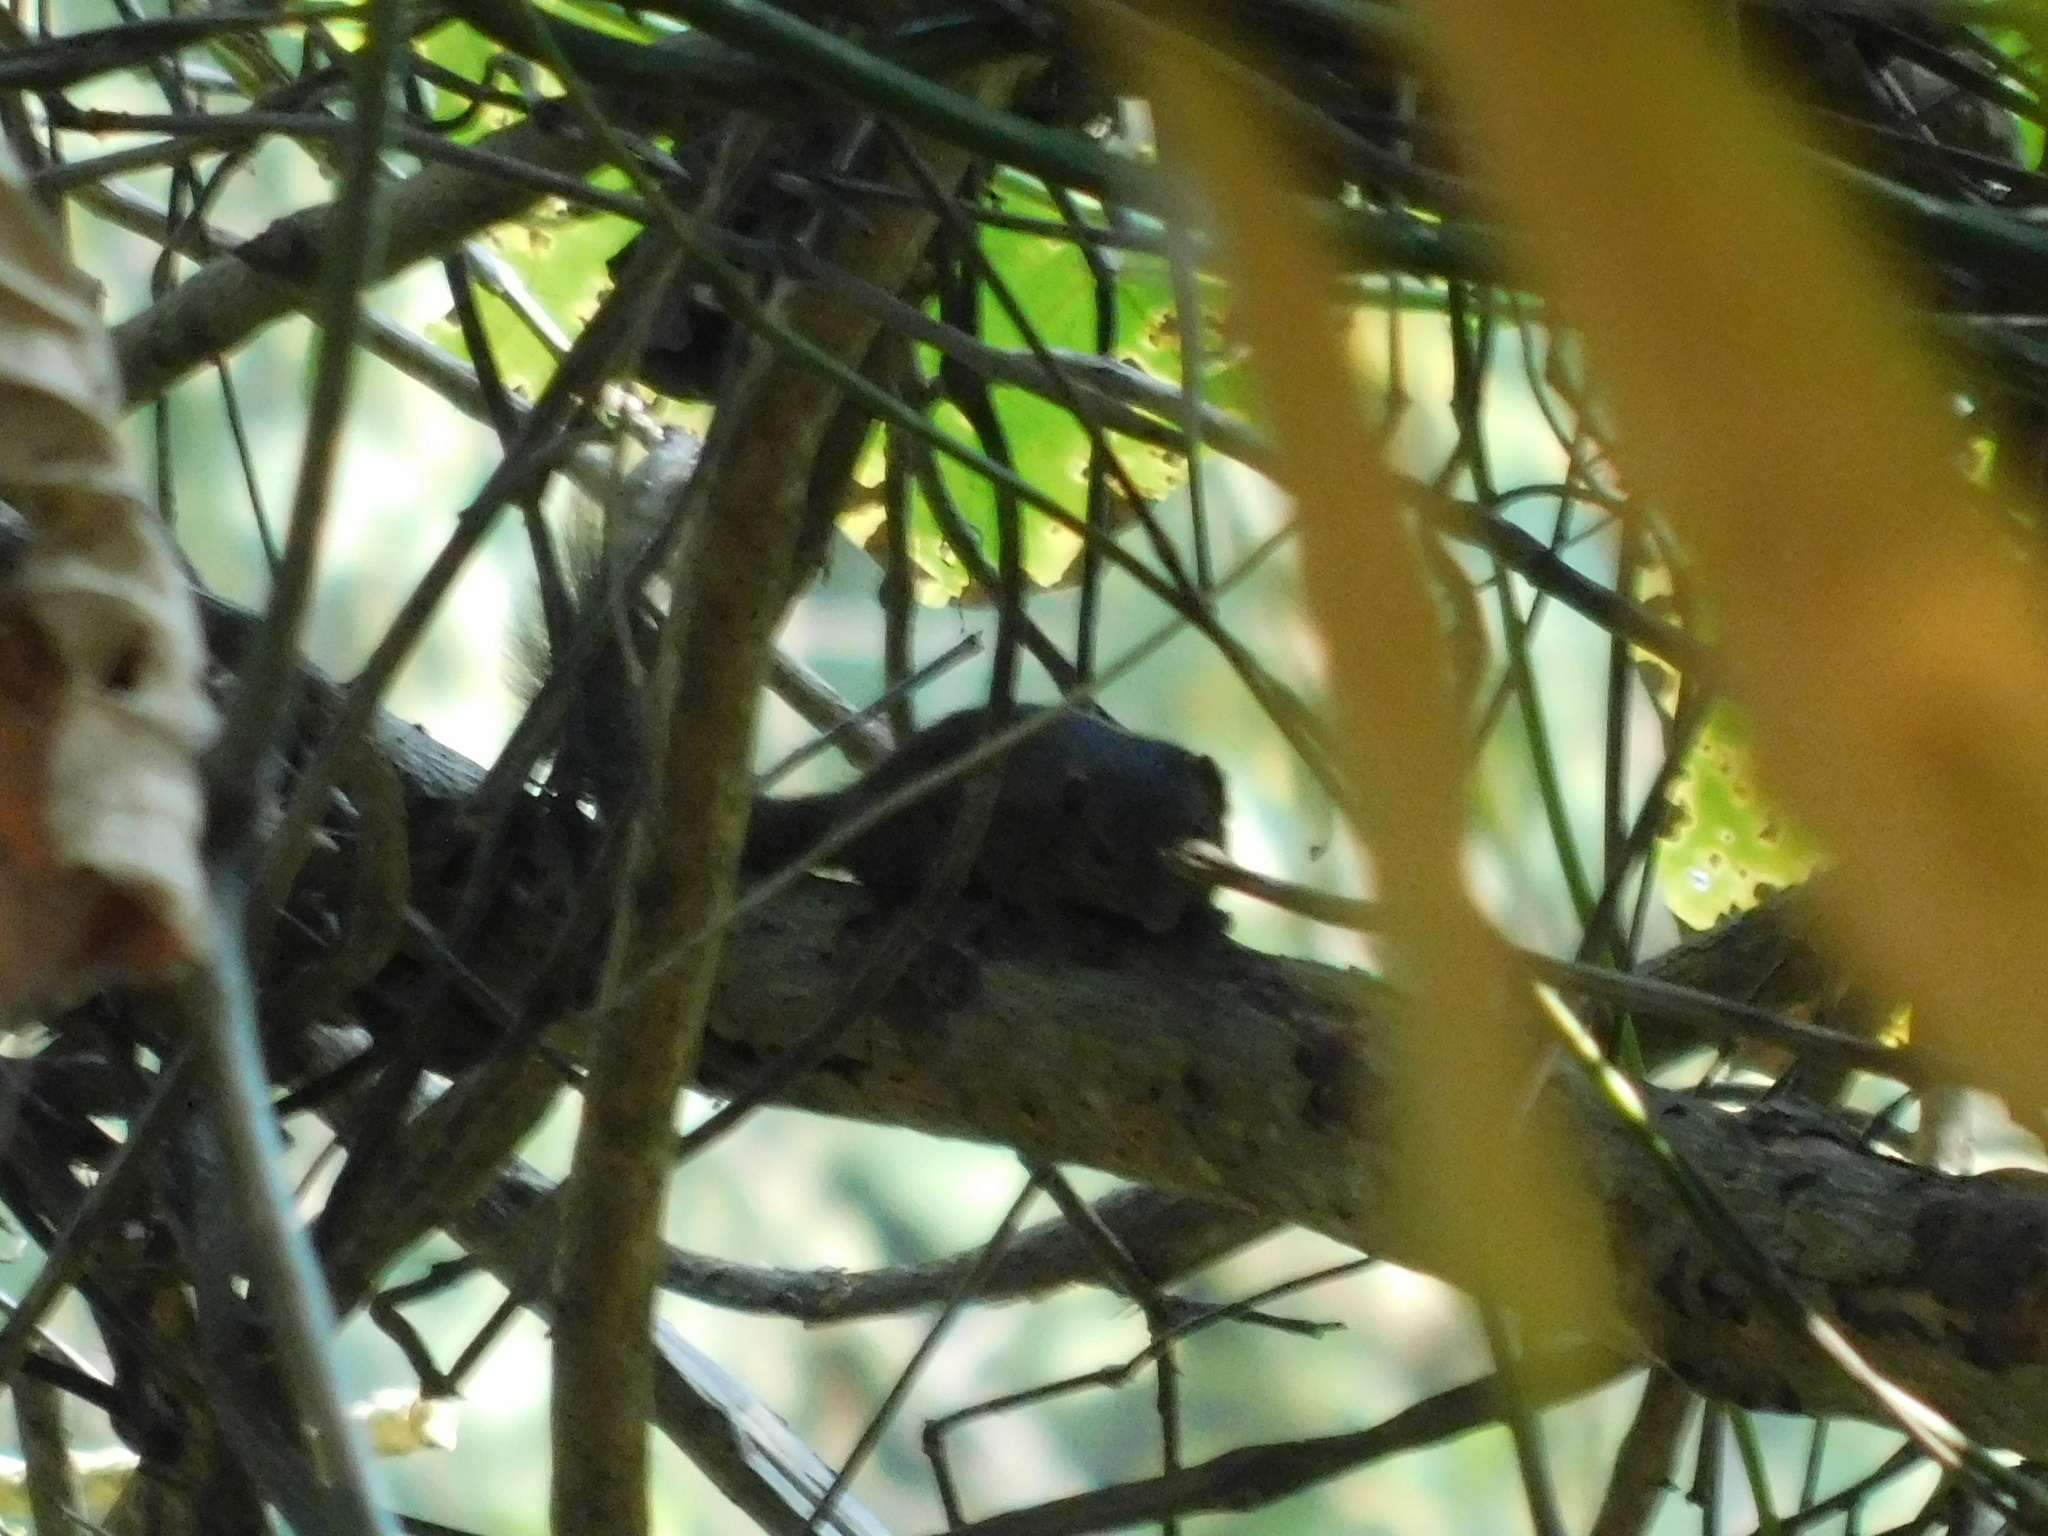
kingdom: Animalia
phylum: Chordata
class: Mammalia
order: Scandentia
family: Tupaiidae
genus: Tupaia
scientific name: Tupaia javanica
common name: Horsfield's treeshrew
